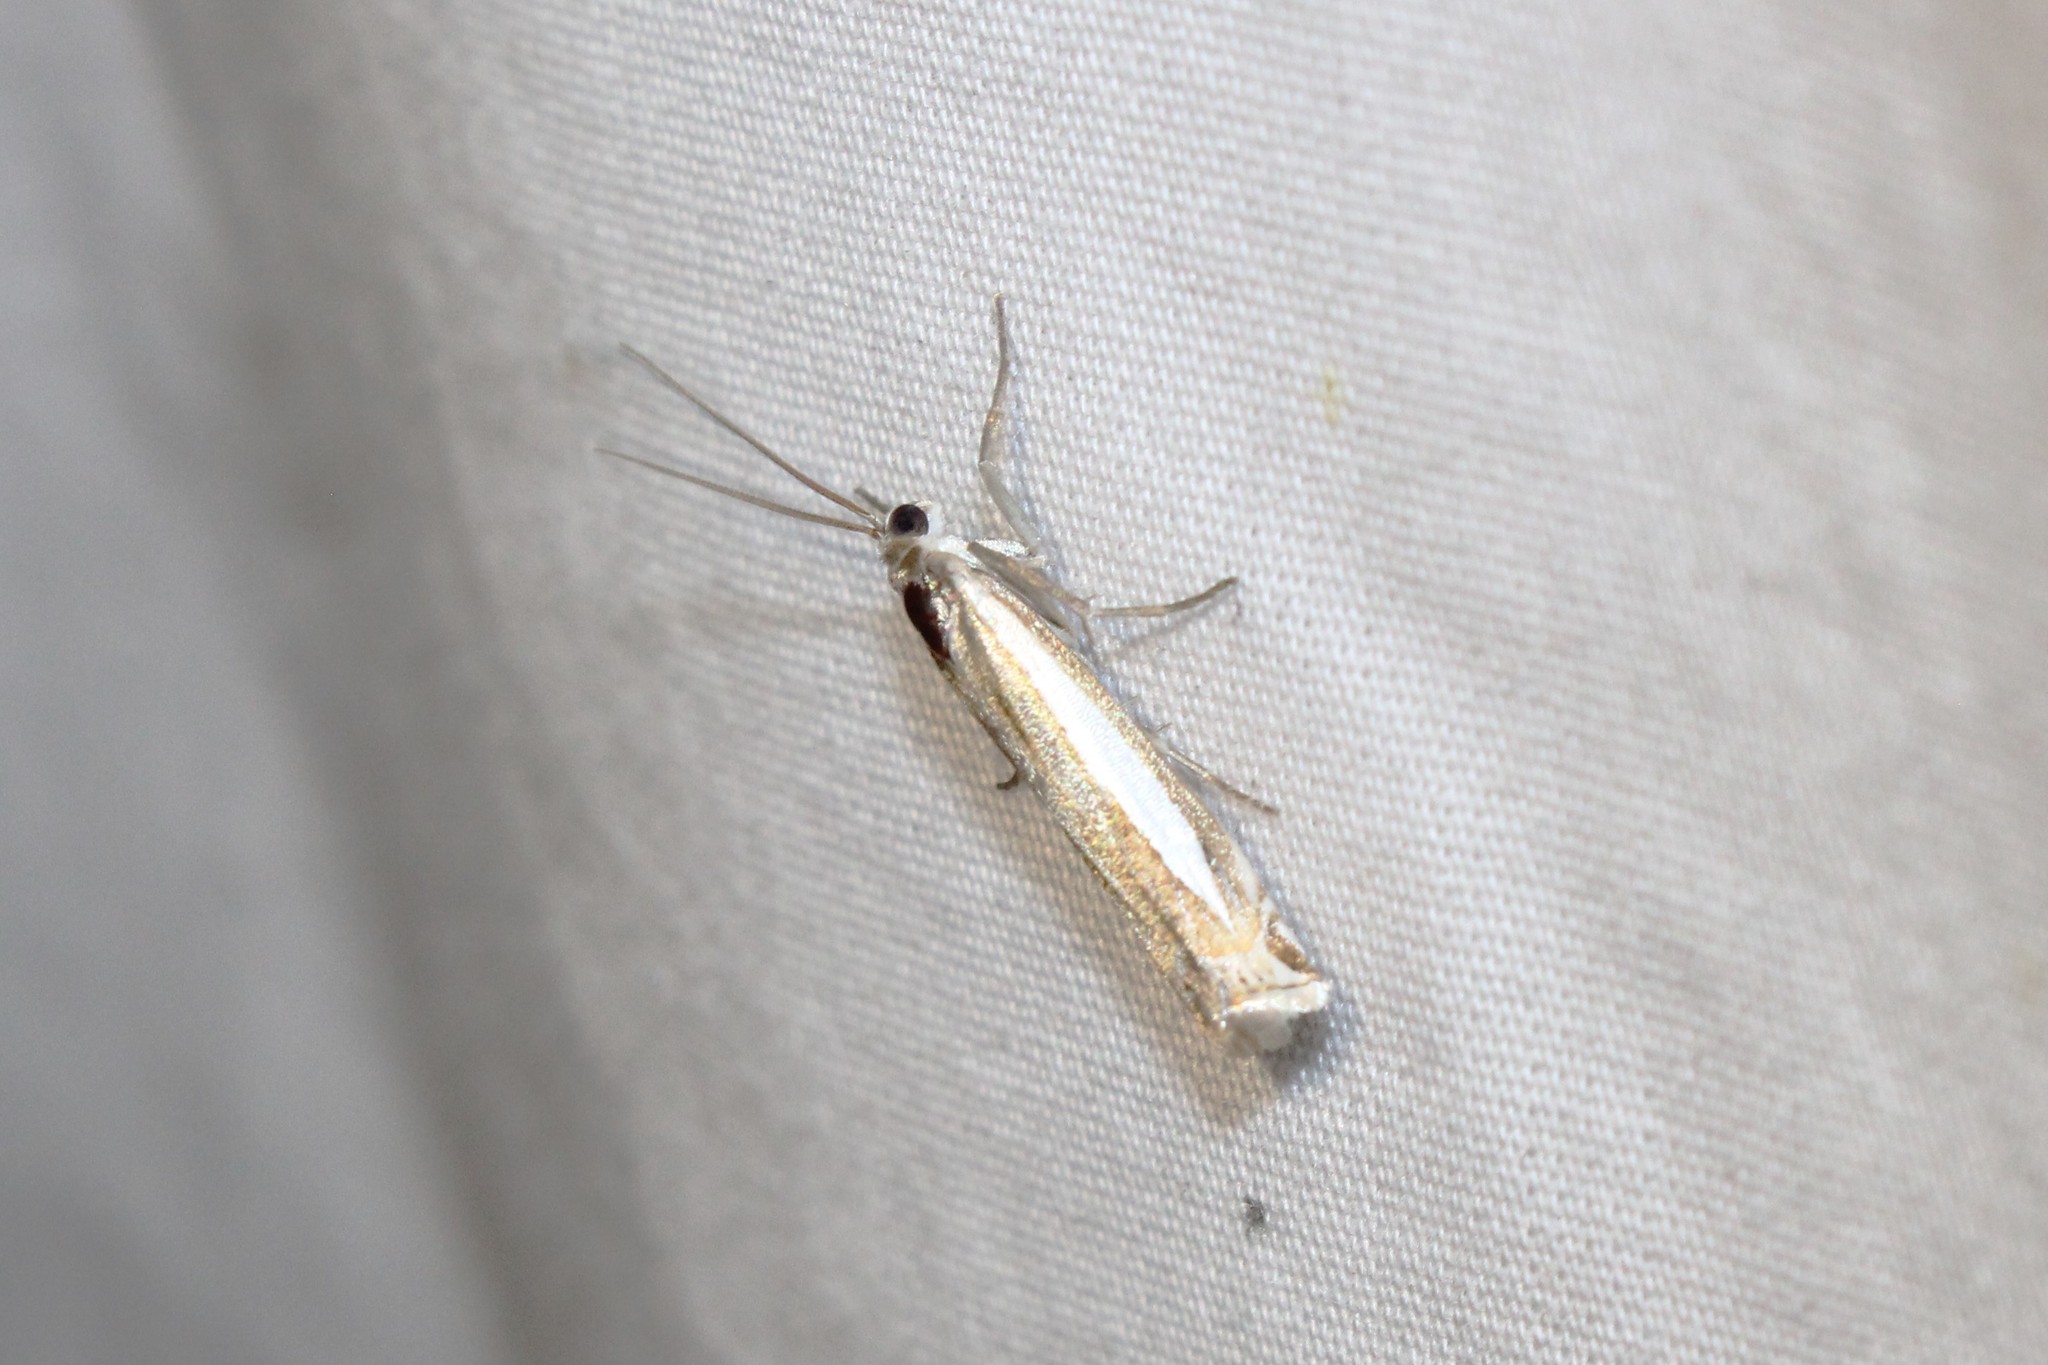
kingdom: Animalia
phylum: Arthropoda
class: Insecta
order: Lepidoptera
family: Crambidae
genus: Crambus
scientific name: Crambus praefectellus
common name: Common grass-veneer
